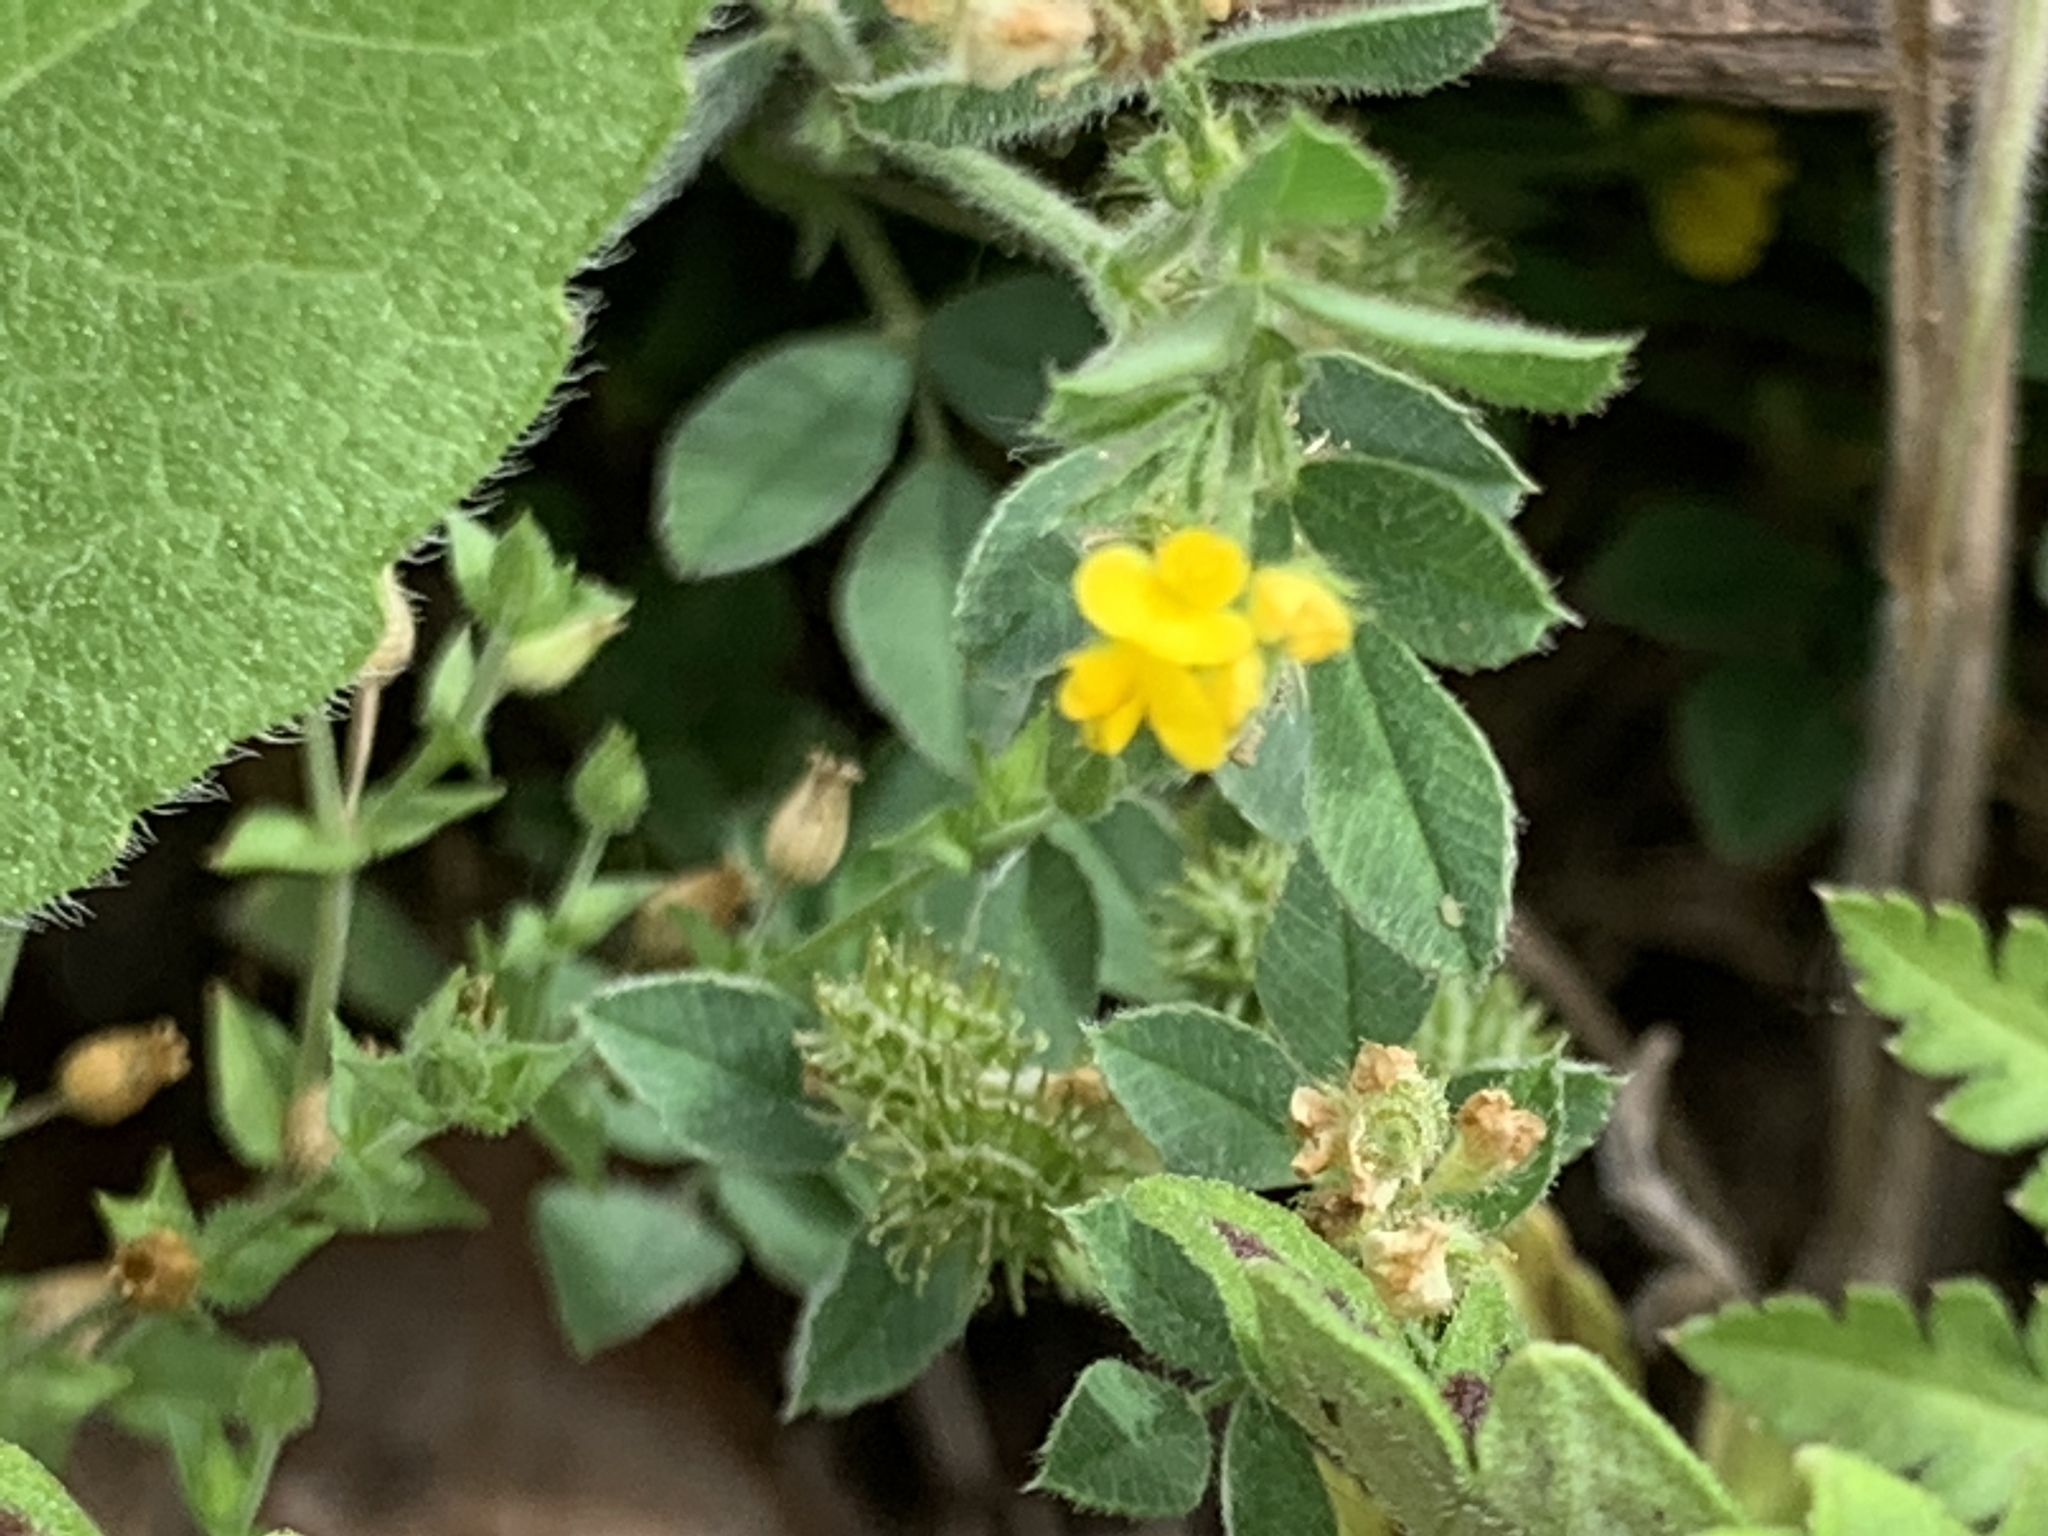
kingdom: Plantae
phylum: Tracheophyta
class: Magnoliopsida
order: Fabales
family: Fabaceae
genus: Medicago
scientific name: Medicago minima
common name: Little bur-clover
